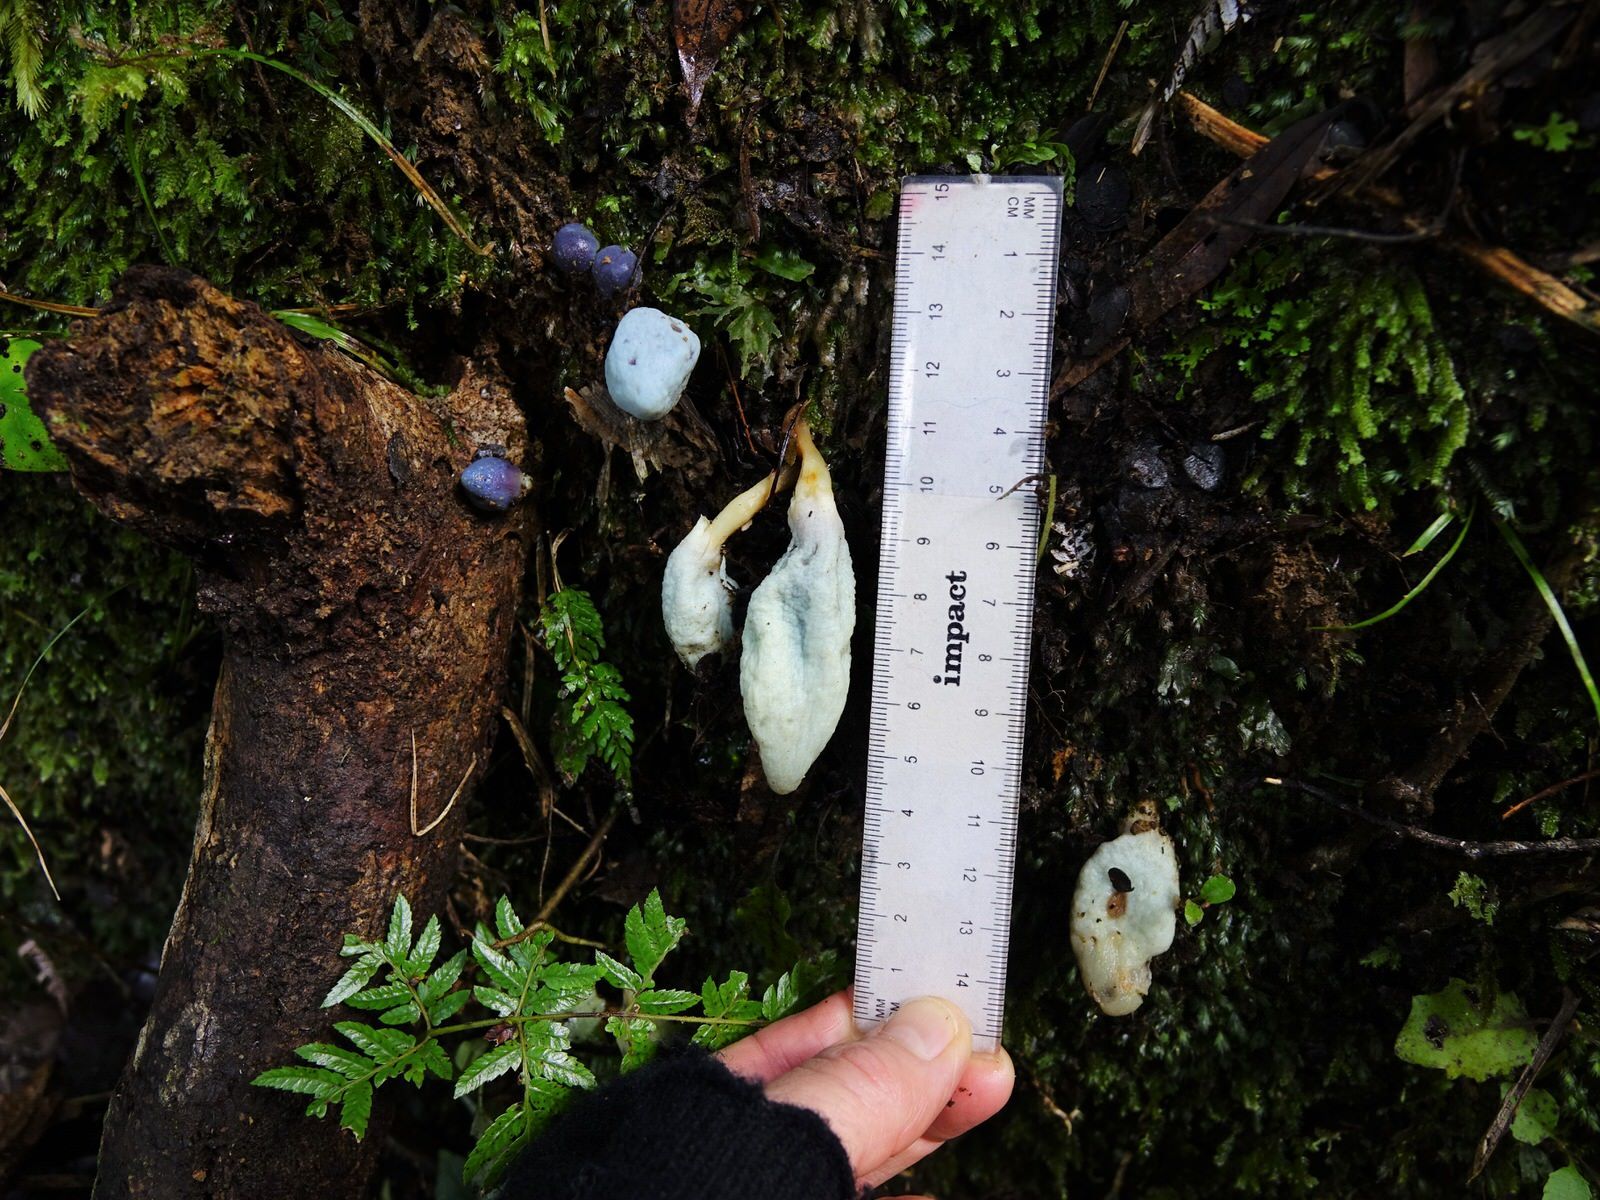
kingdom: Fungi
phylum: Basidiomycota
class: Agaricomycetes
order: Agaricales
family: Agaricaceae
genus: Clavogaster
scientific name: Clavogaster virescens
